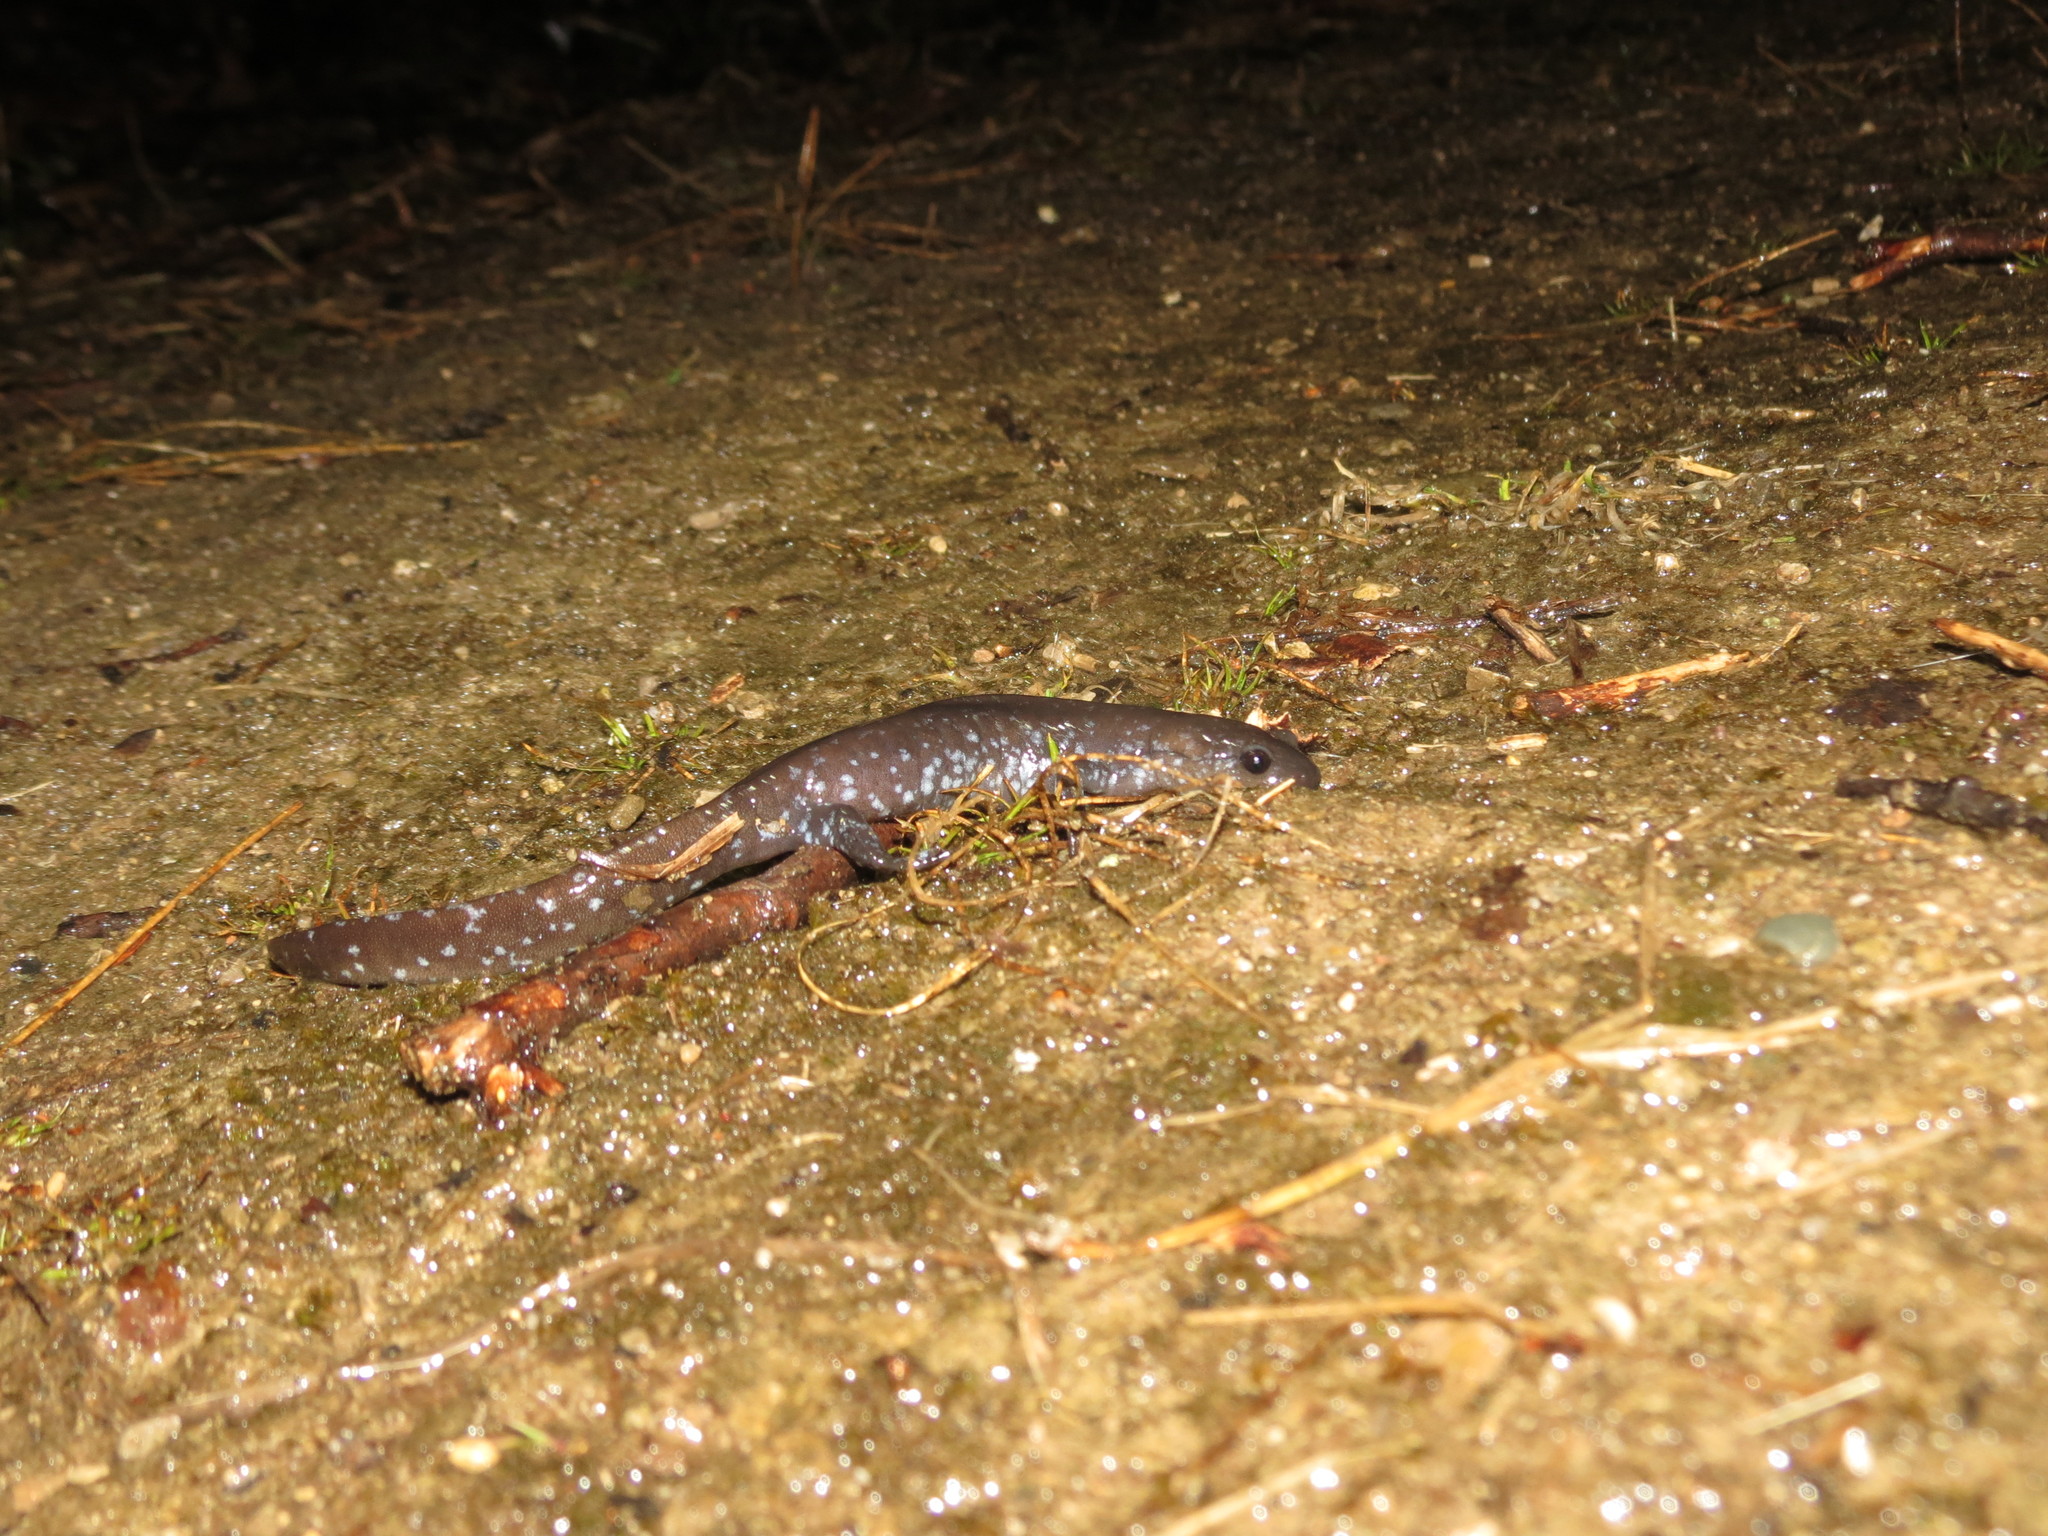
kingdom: Animalia
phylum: Chordata
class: Amphibia
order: Caudata
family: Ambystomatidae
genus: Ambystoma
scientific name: Ambystoma unisexual
